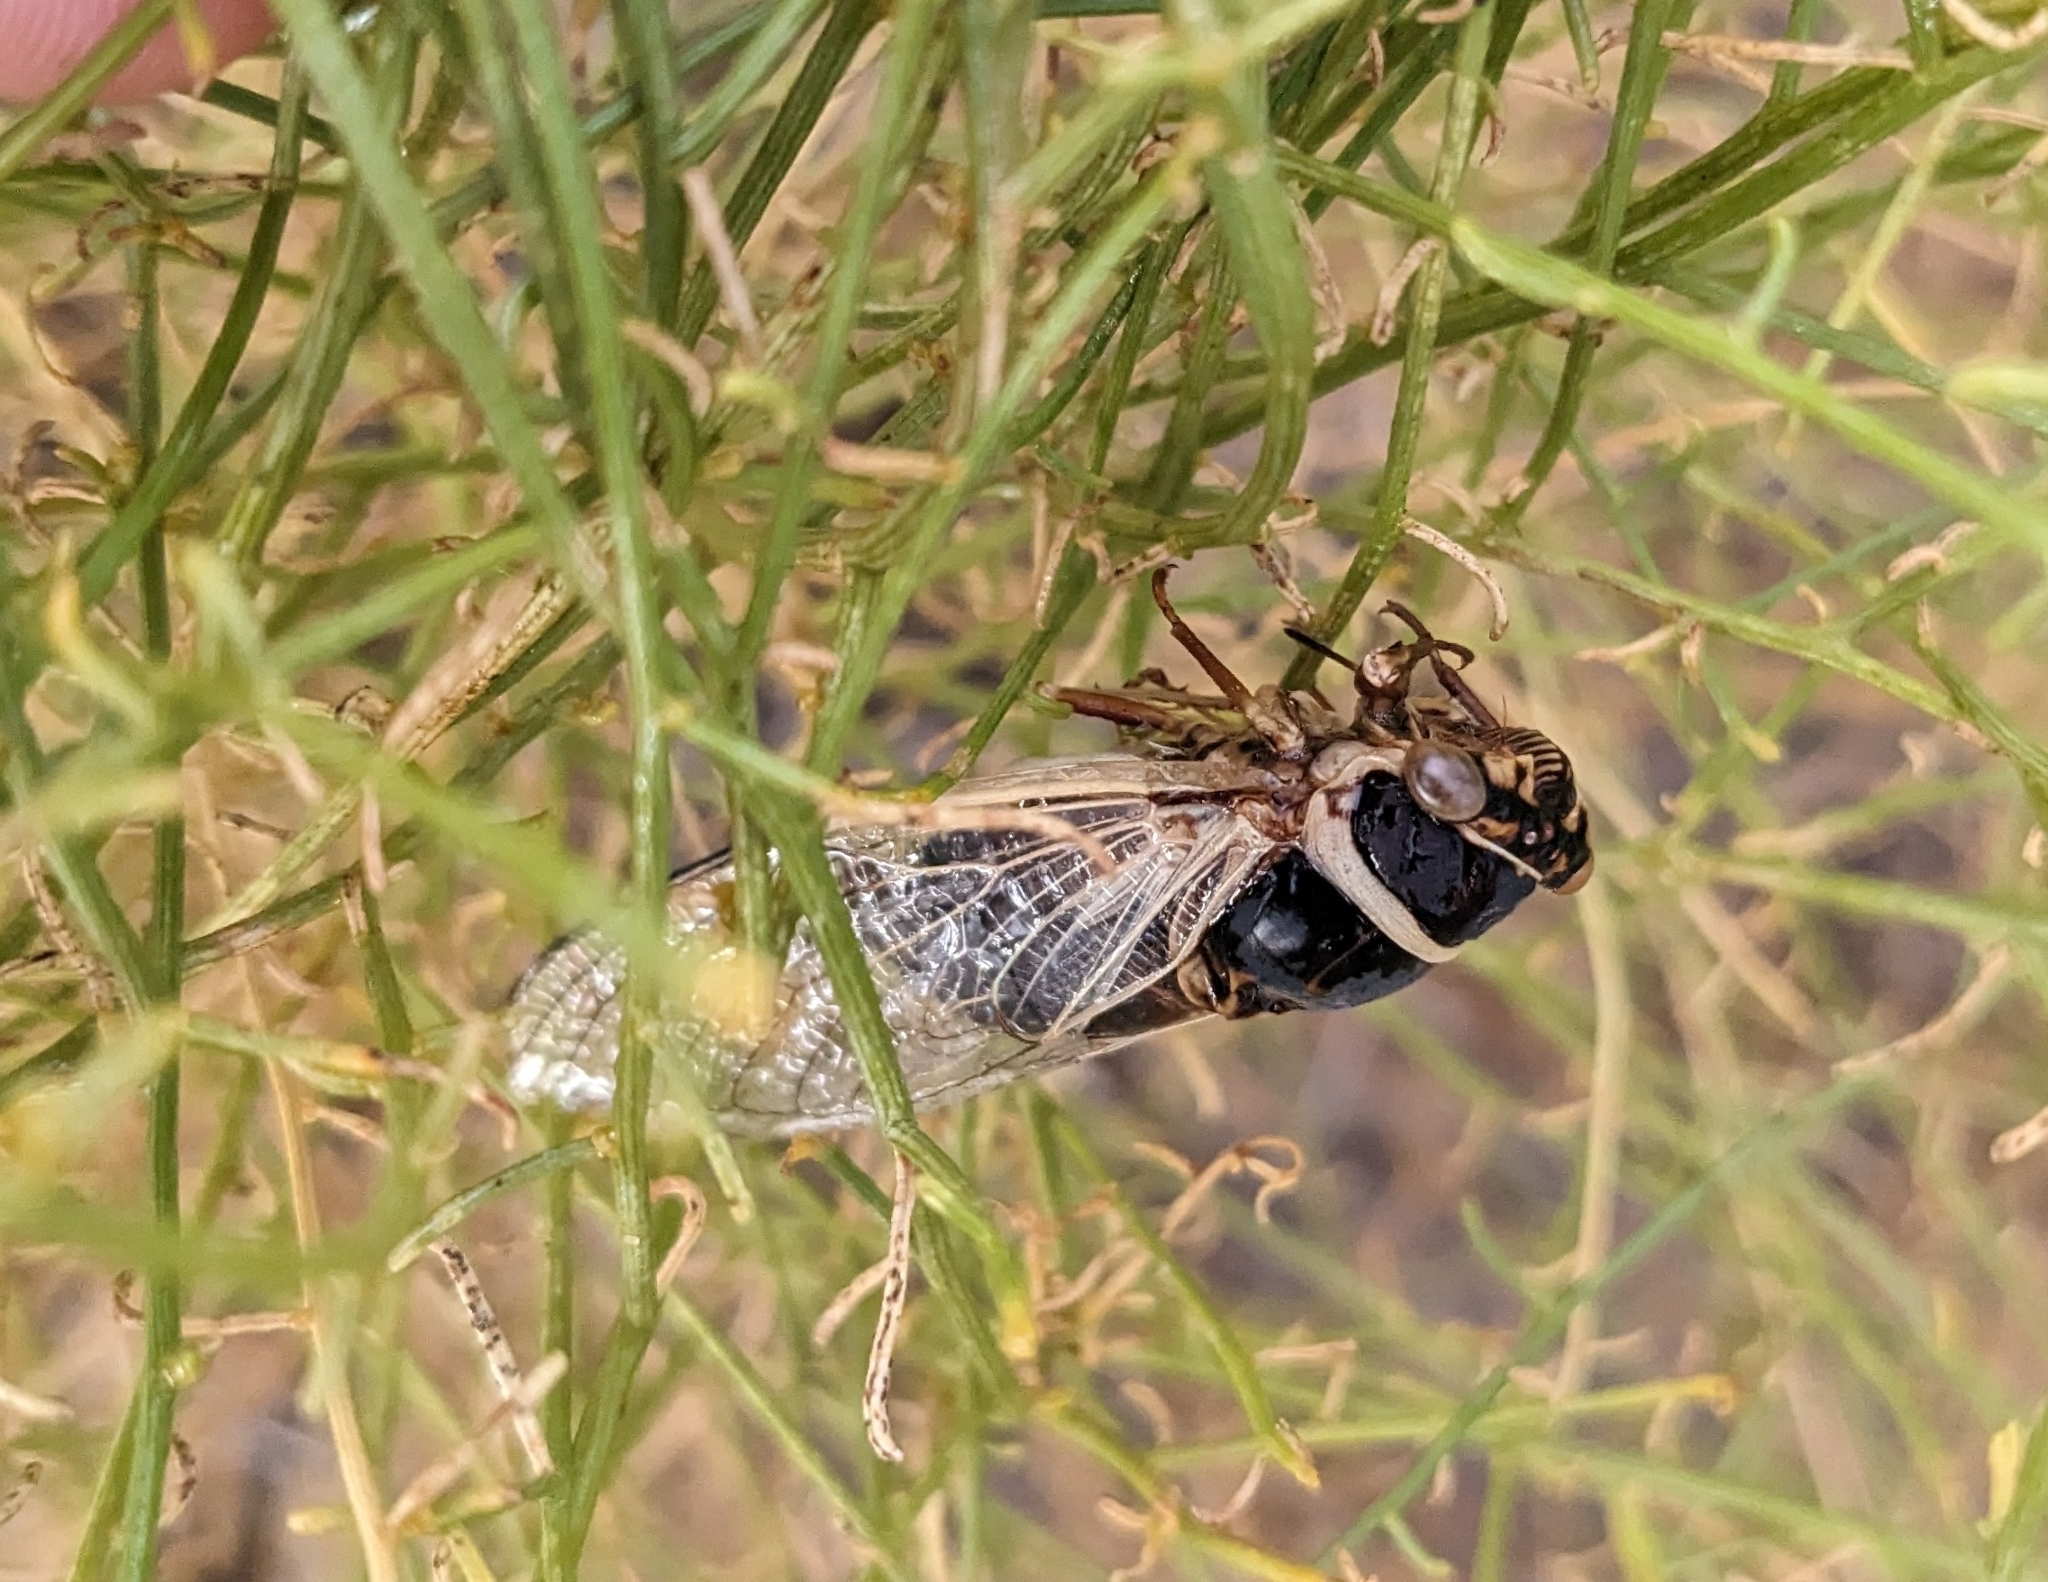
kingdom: Animalia
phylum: Arthropoda
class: Insecta
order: Hemiptera
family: Cicadidae
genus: Diceroprocta
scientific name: Diceroprocta apache
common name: Desert cicada
